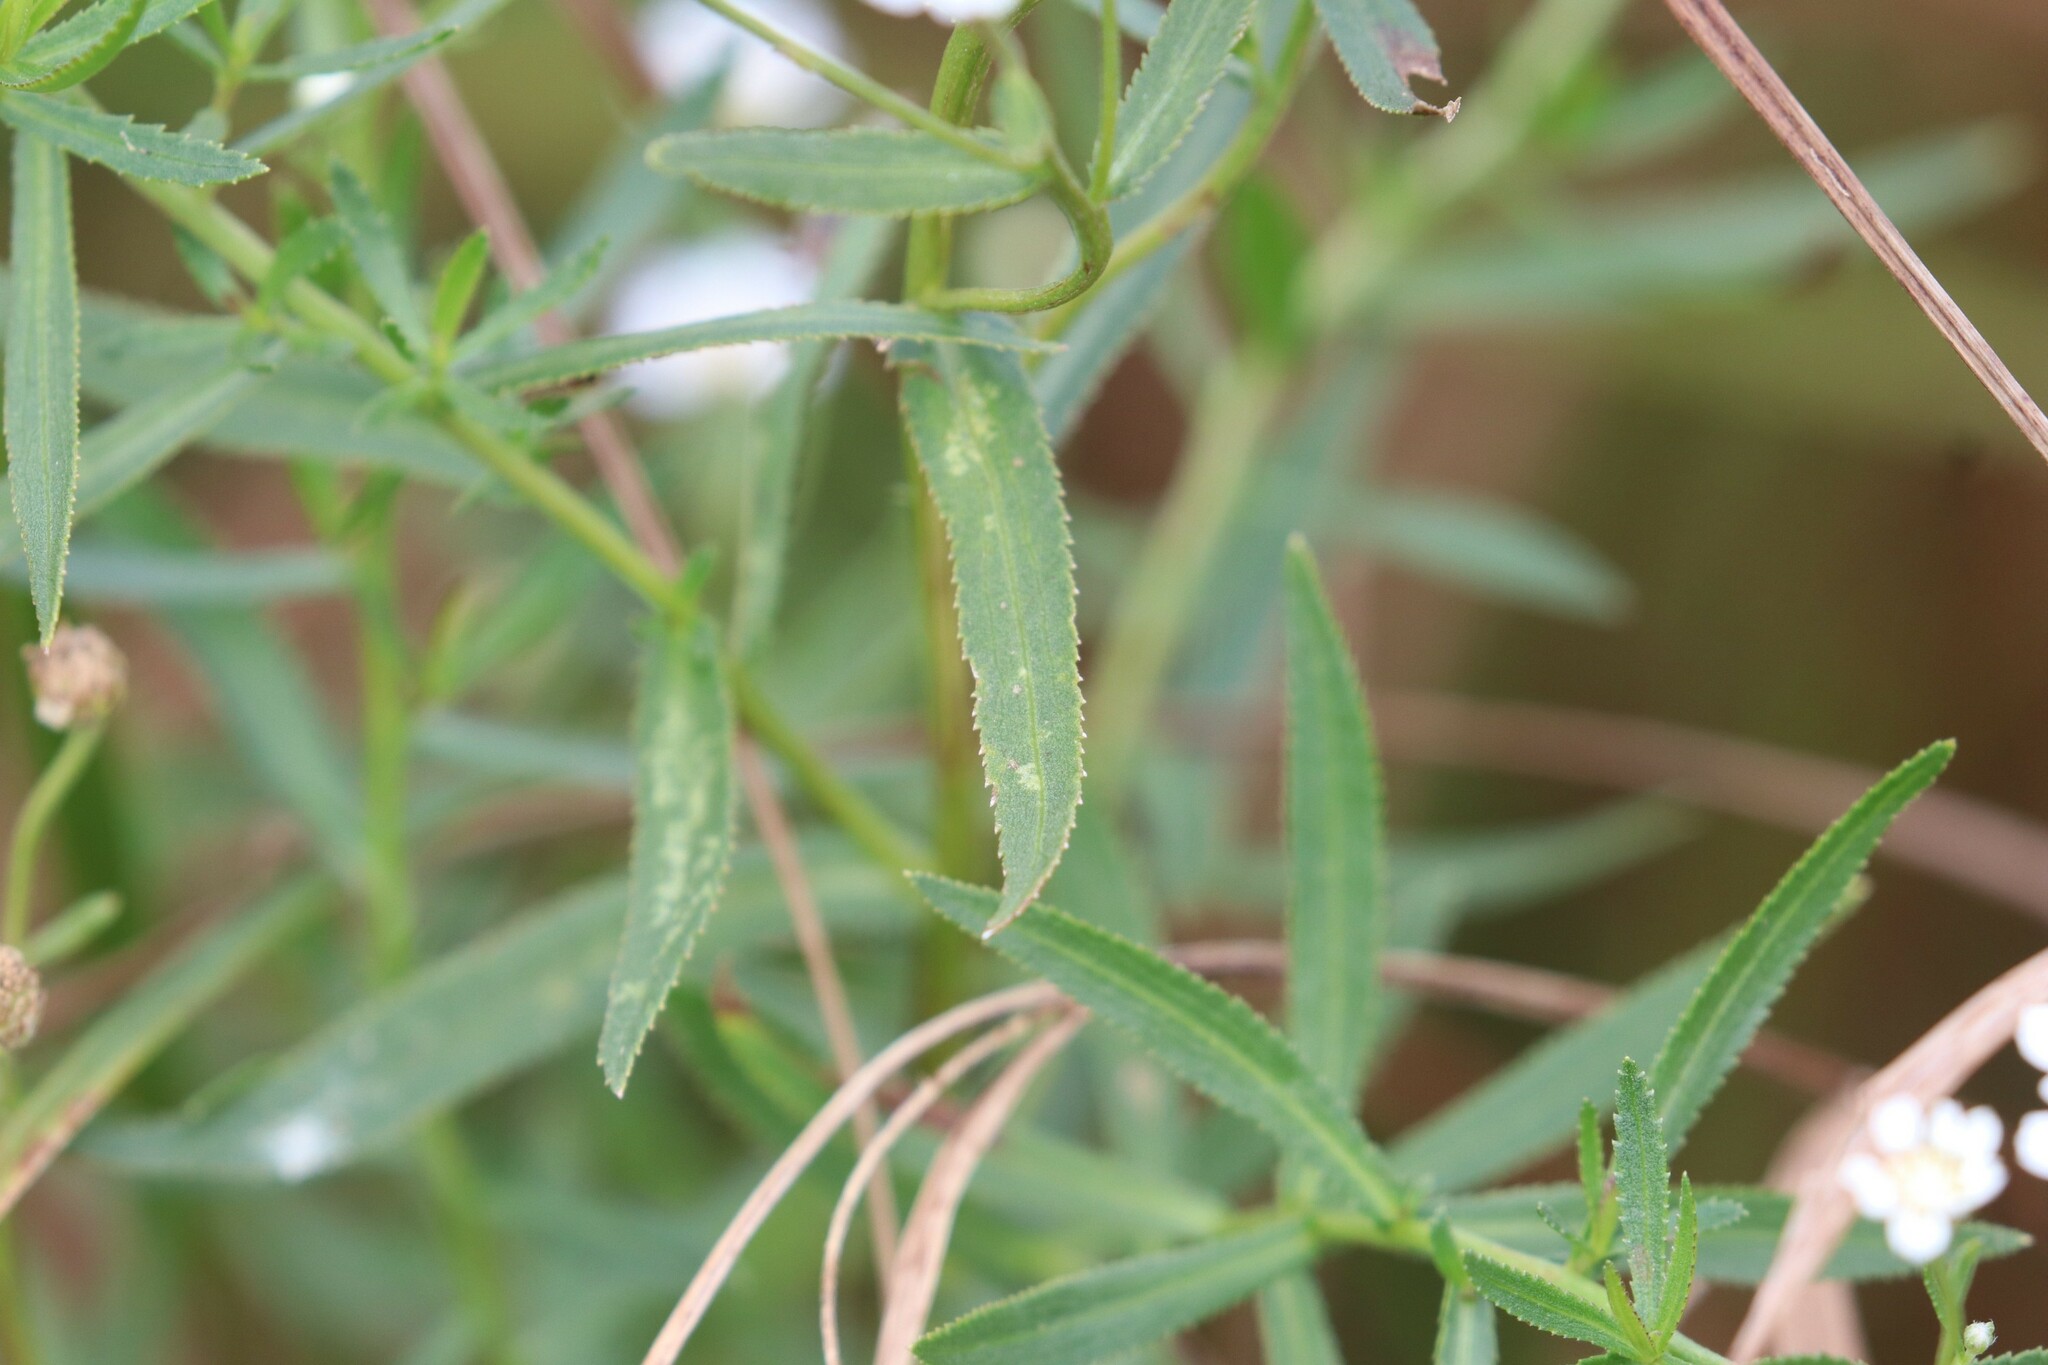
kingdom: Plantae
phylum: Tracheophyta
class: Magnoliopsida
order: Asterales
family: Asteraceae
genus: Achillea
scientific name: Achillea salicifolia
